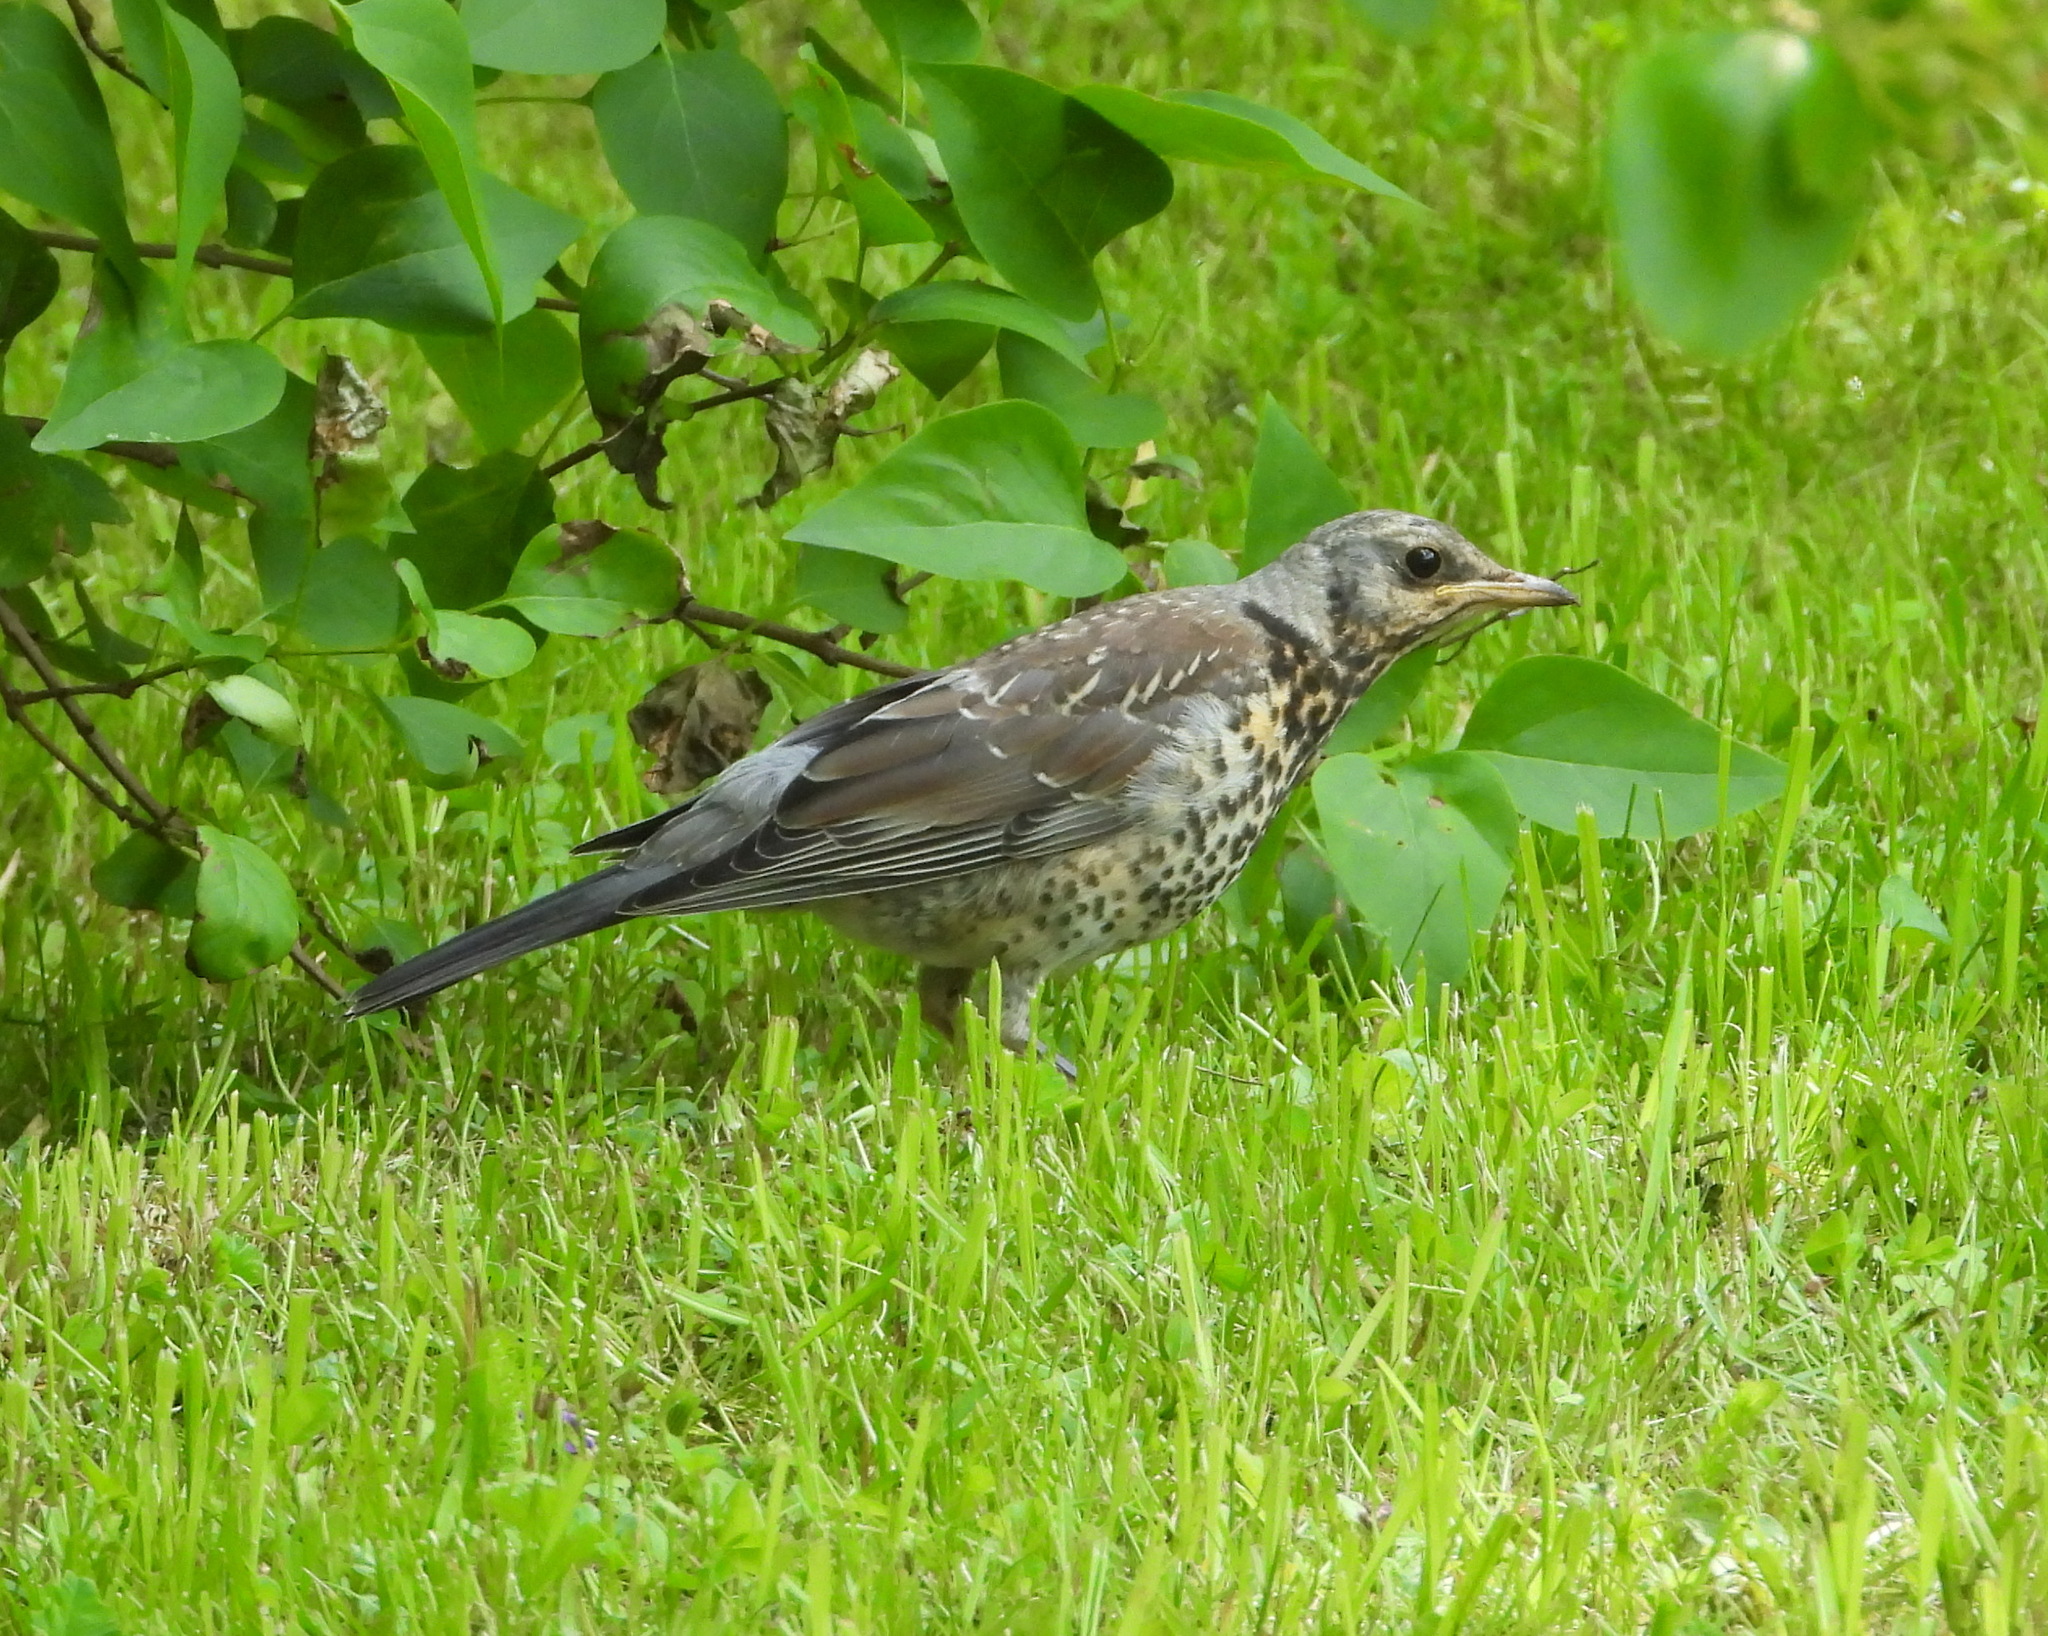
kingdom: Animalia
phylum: Chordata
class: Aves
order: Passeriformes
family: Turdidae
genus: Turdus
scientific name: Turdus pilaris
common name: Fieldfare
